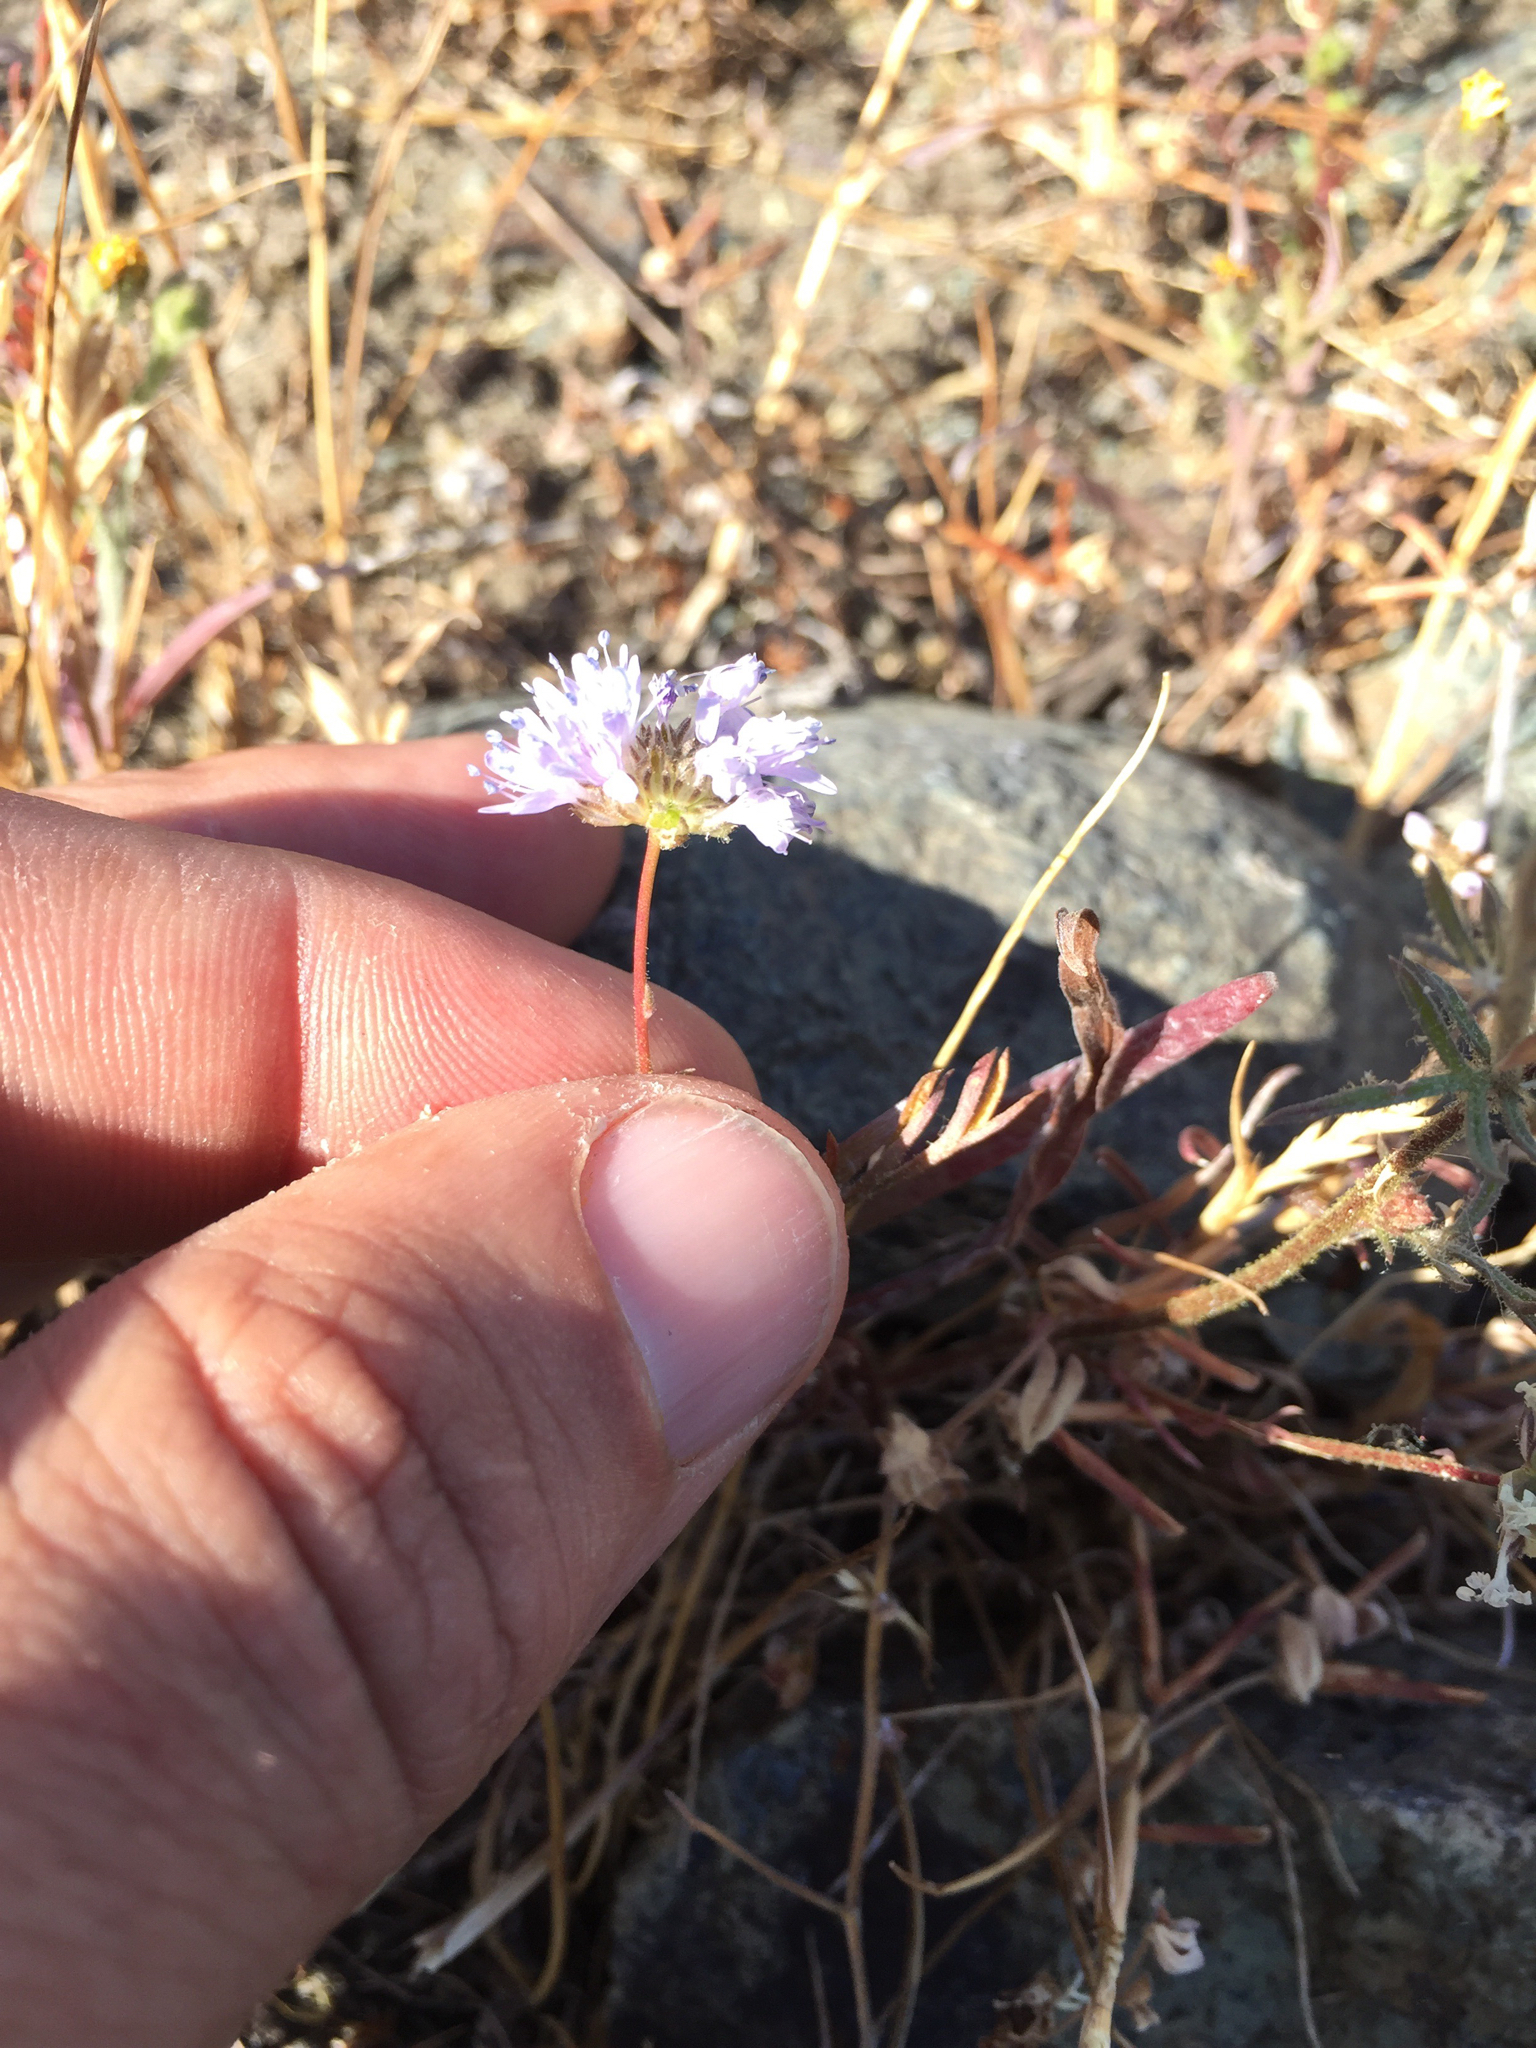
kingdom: Plantae
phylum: Tracheophyta
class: Magnoliopsida
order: Ericales
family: Polemoniaceae
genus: Gilia
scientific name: Gilia capitata
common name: Bluehead gilia
